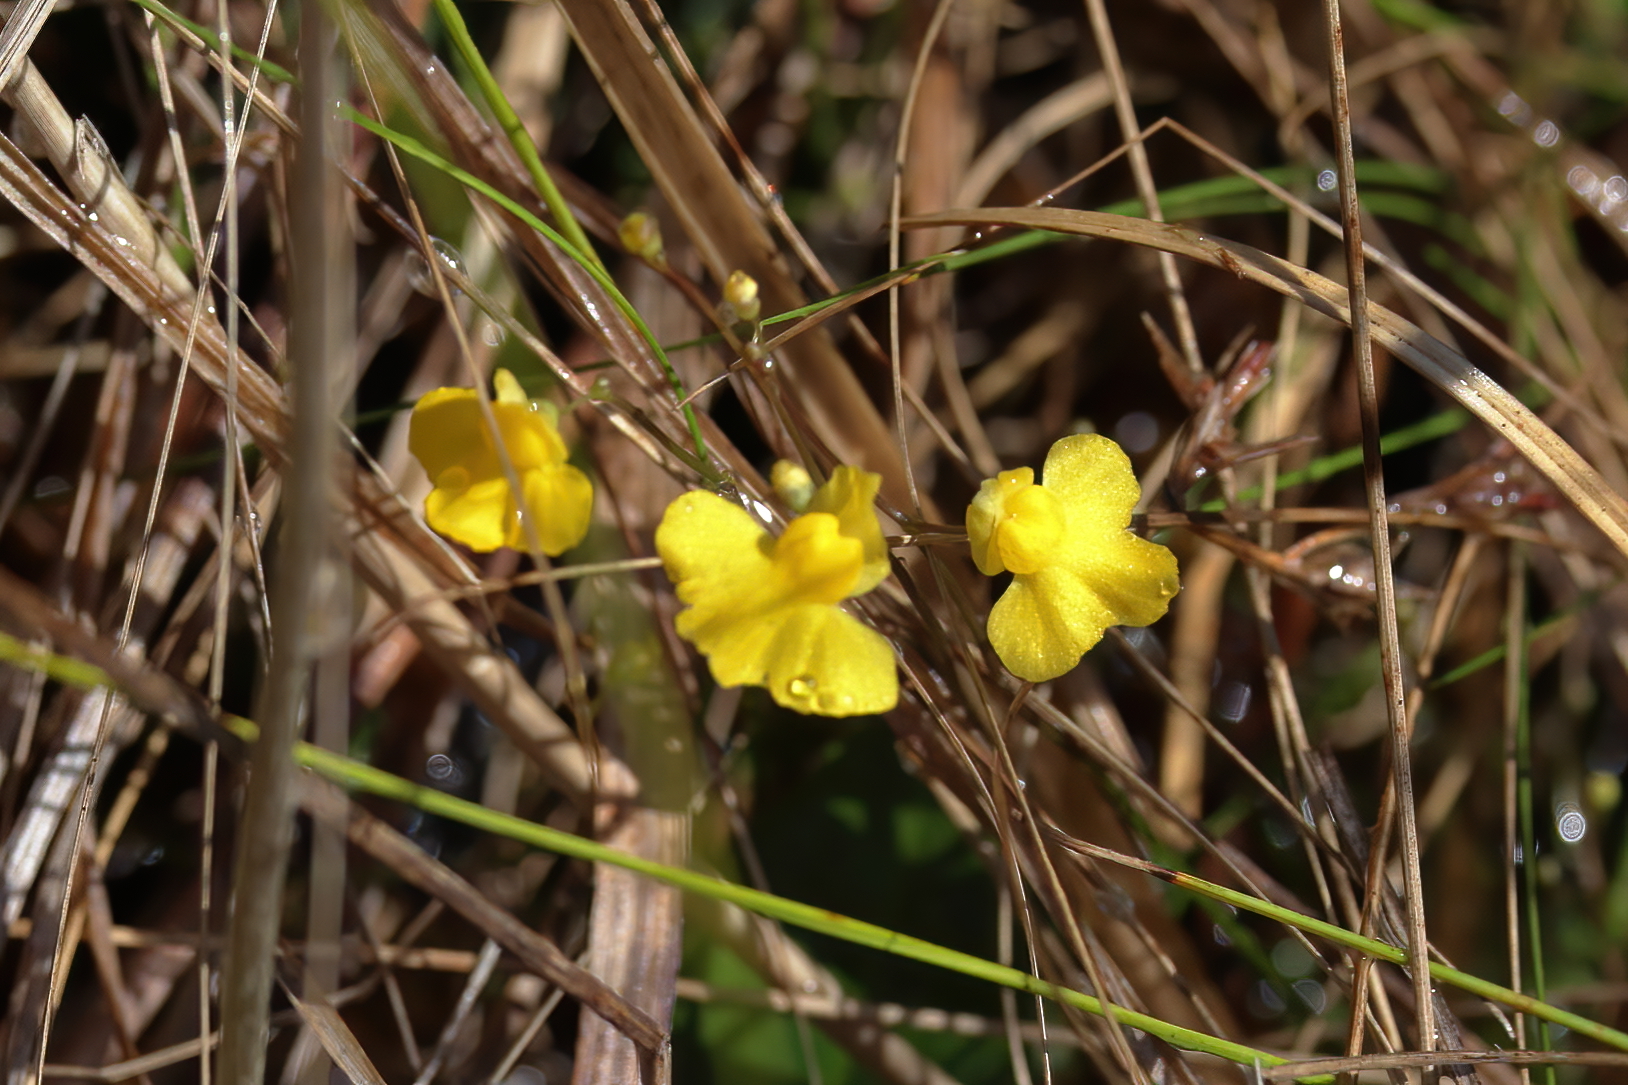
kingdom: Plantae
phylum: Tracheophyta
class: Magnoliopsida
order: Lamiales
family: Lentibulariaceae
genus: Utricularia
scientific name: Utricularia subulata
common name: Tiny bladderwort
